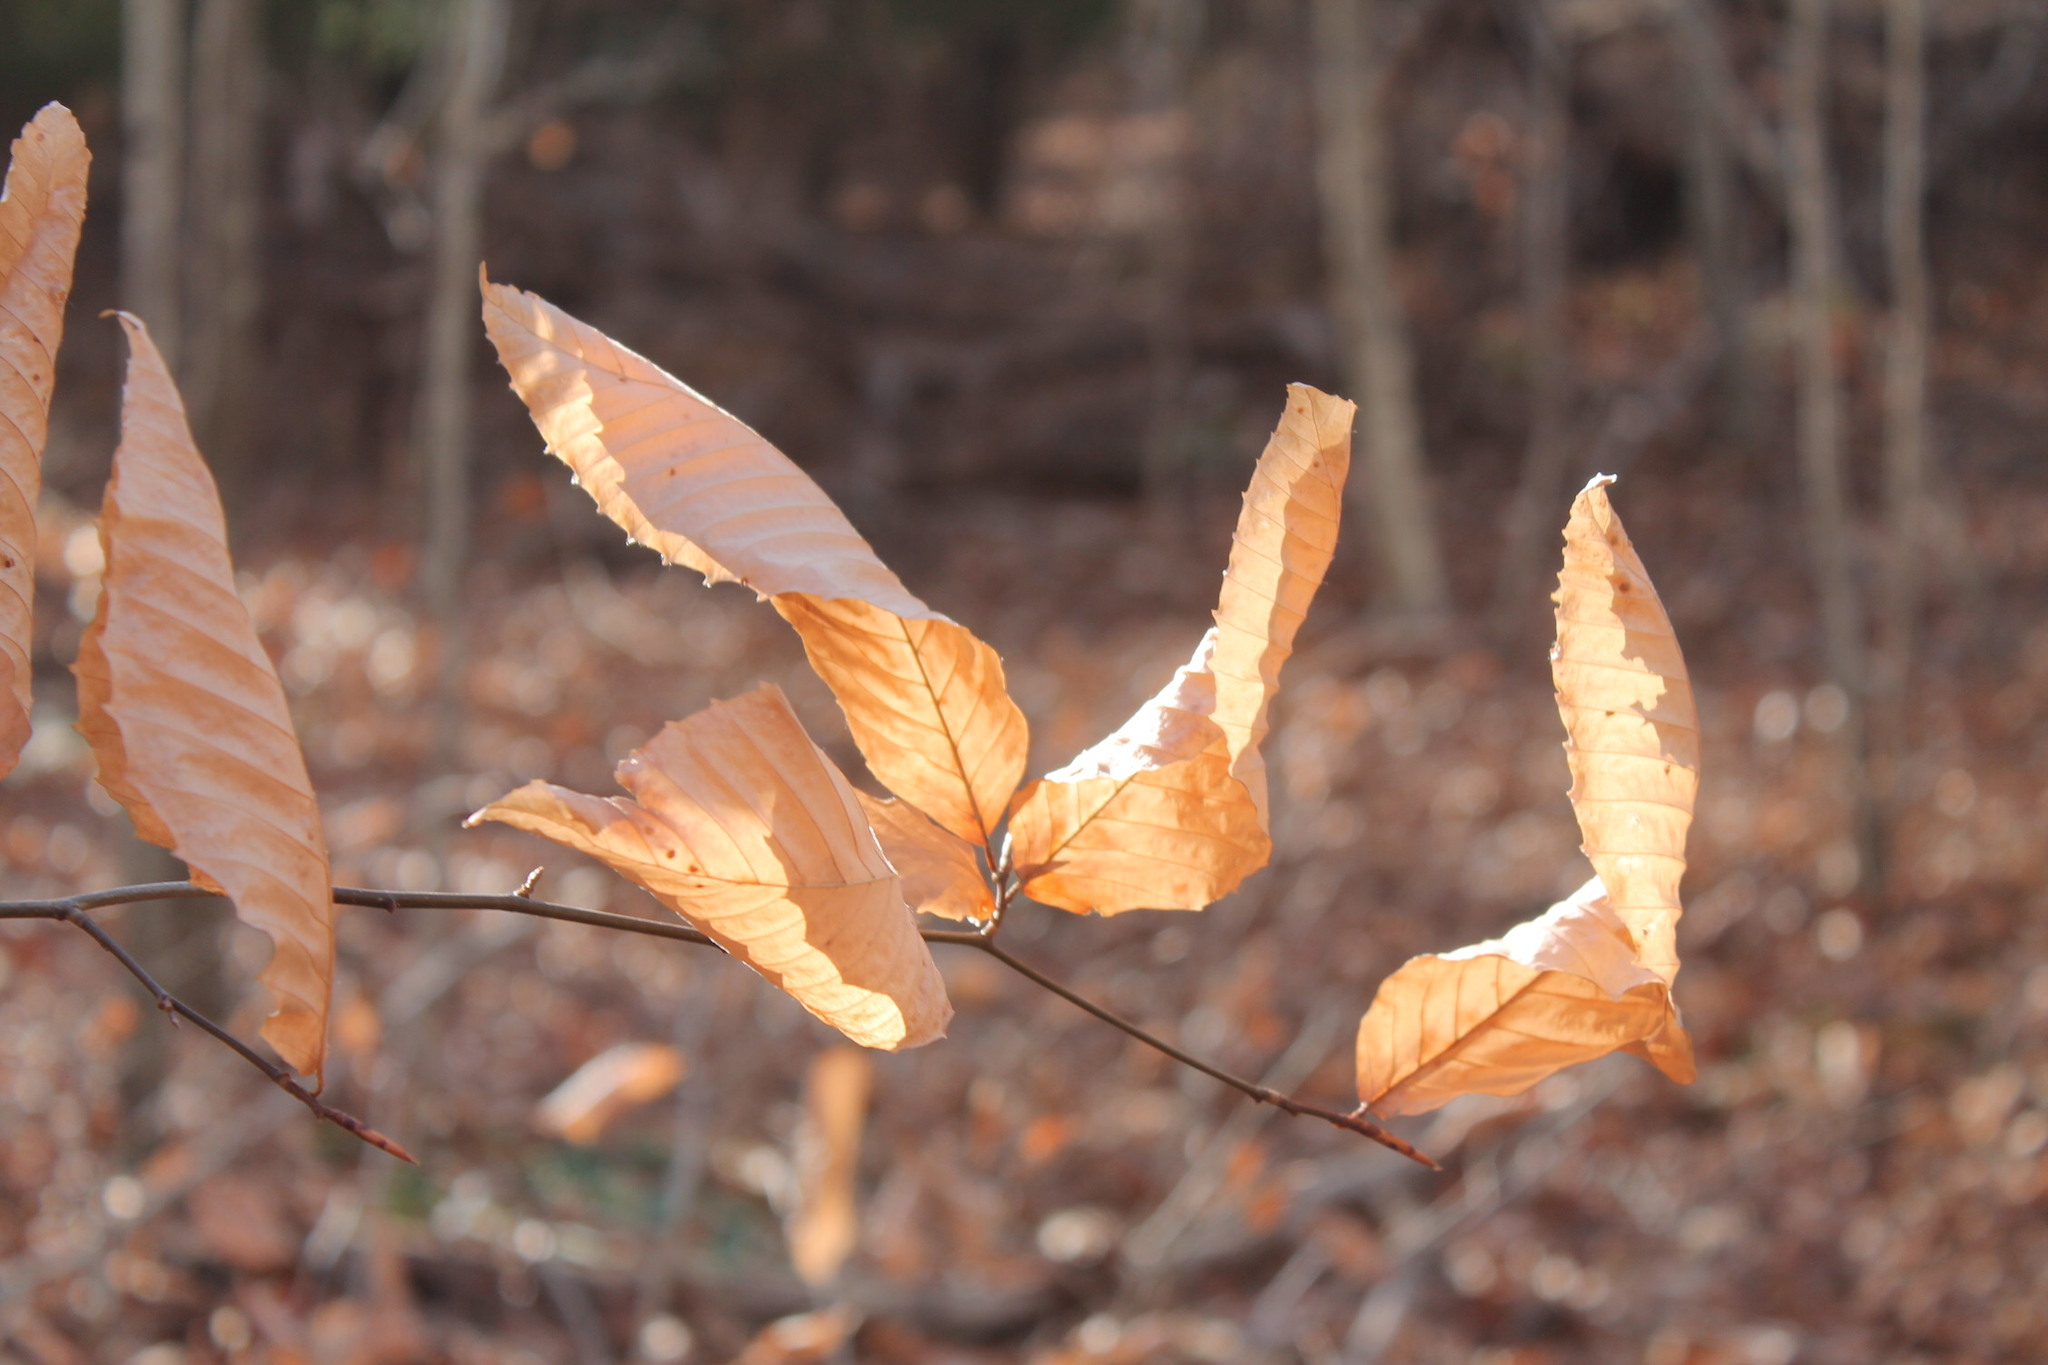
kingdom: Plantae
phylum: Tracheophyta
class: Magnoliopsida
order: Fagales
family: Fagaceae
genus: Fagus
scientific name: Fagus grandifolia
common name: American beech
